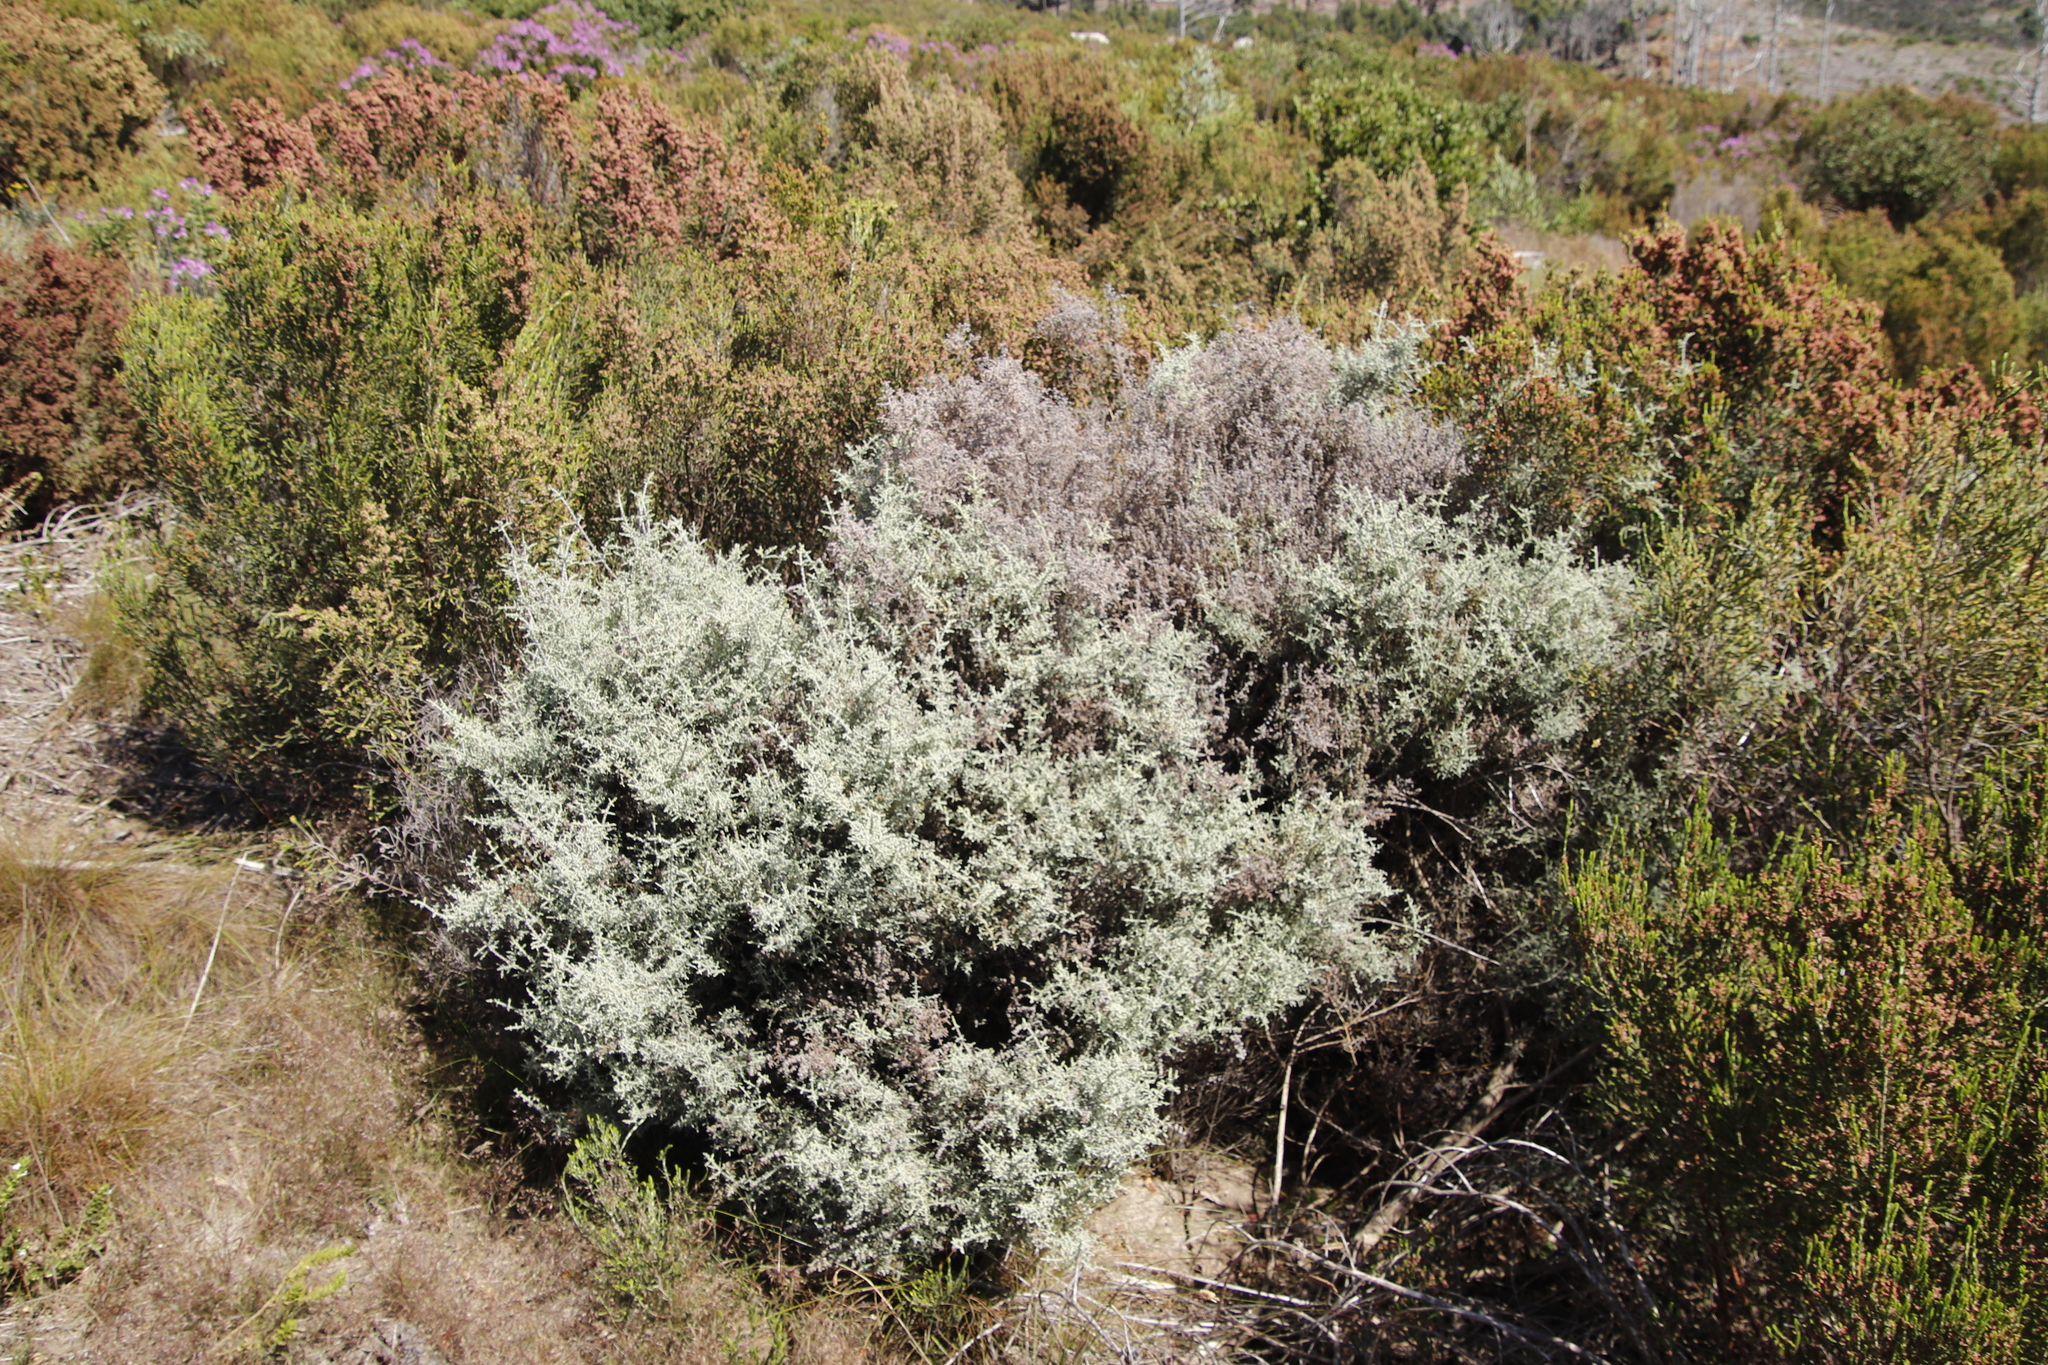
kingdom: Plantae
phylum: Tracheophyta
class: Magnoliopsida
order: Asterales
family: Asteraceae
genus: Seriphium
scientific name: Seriphium plumosum
